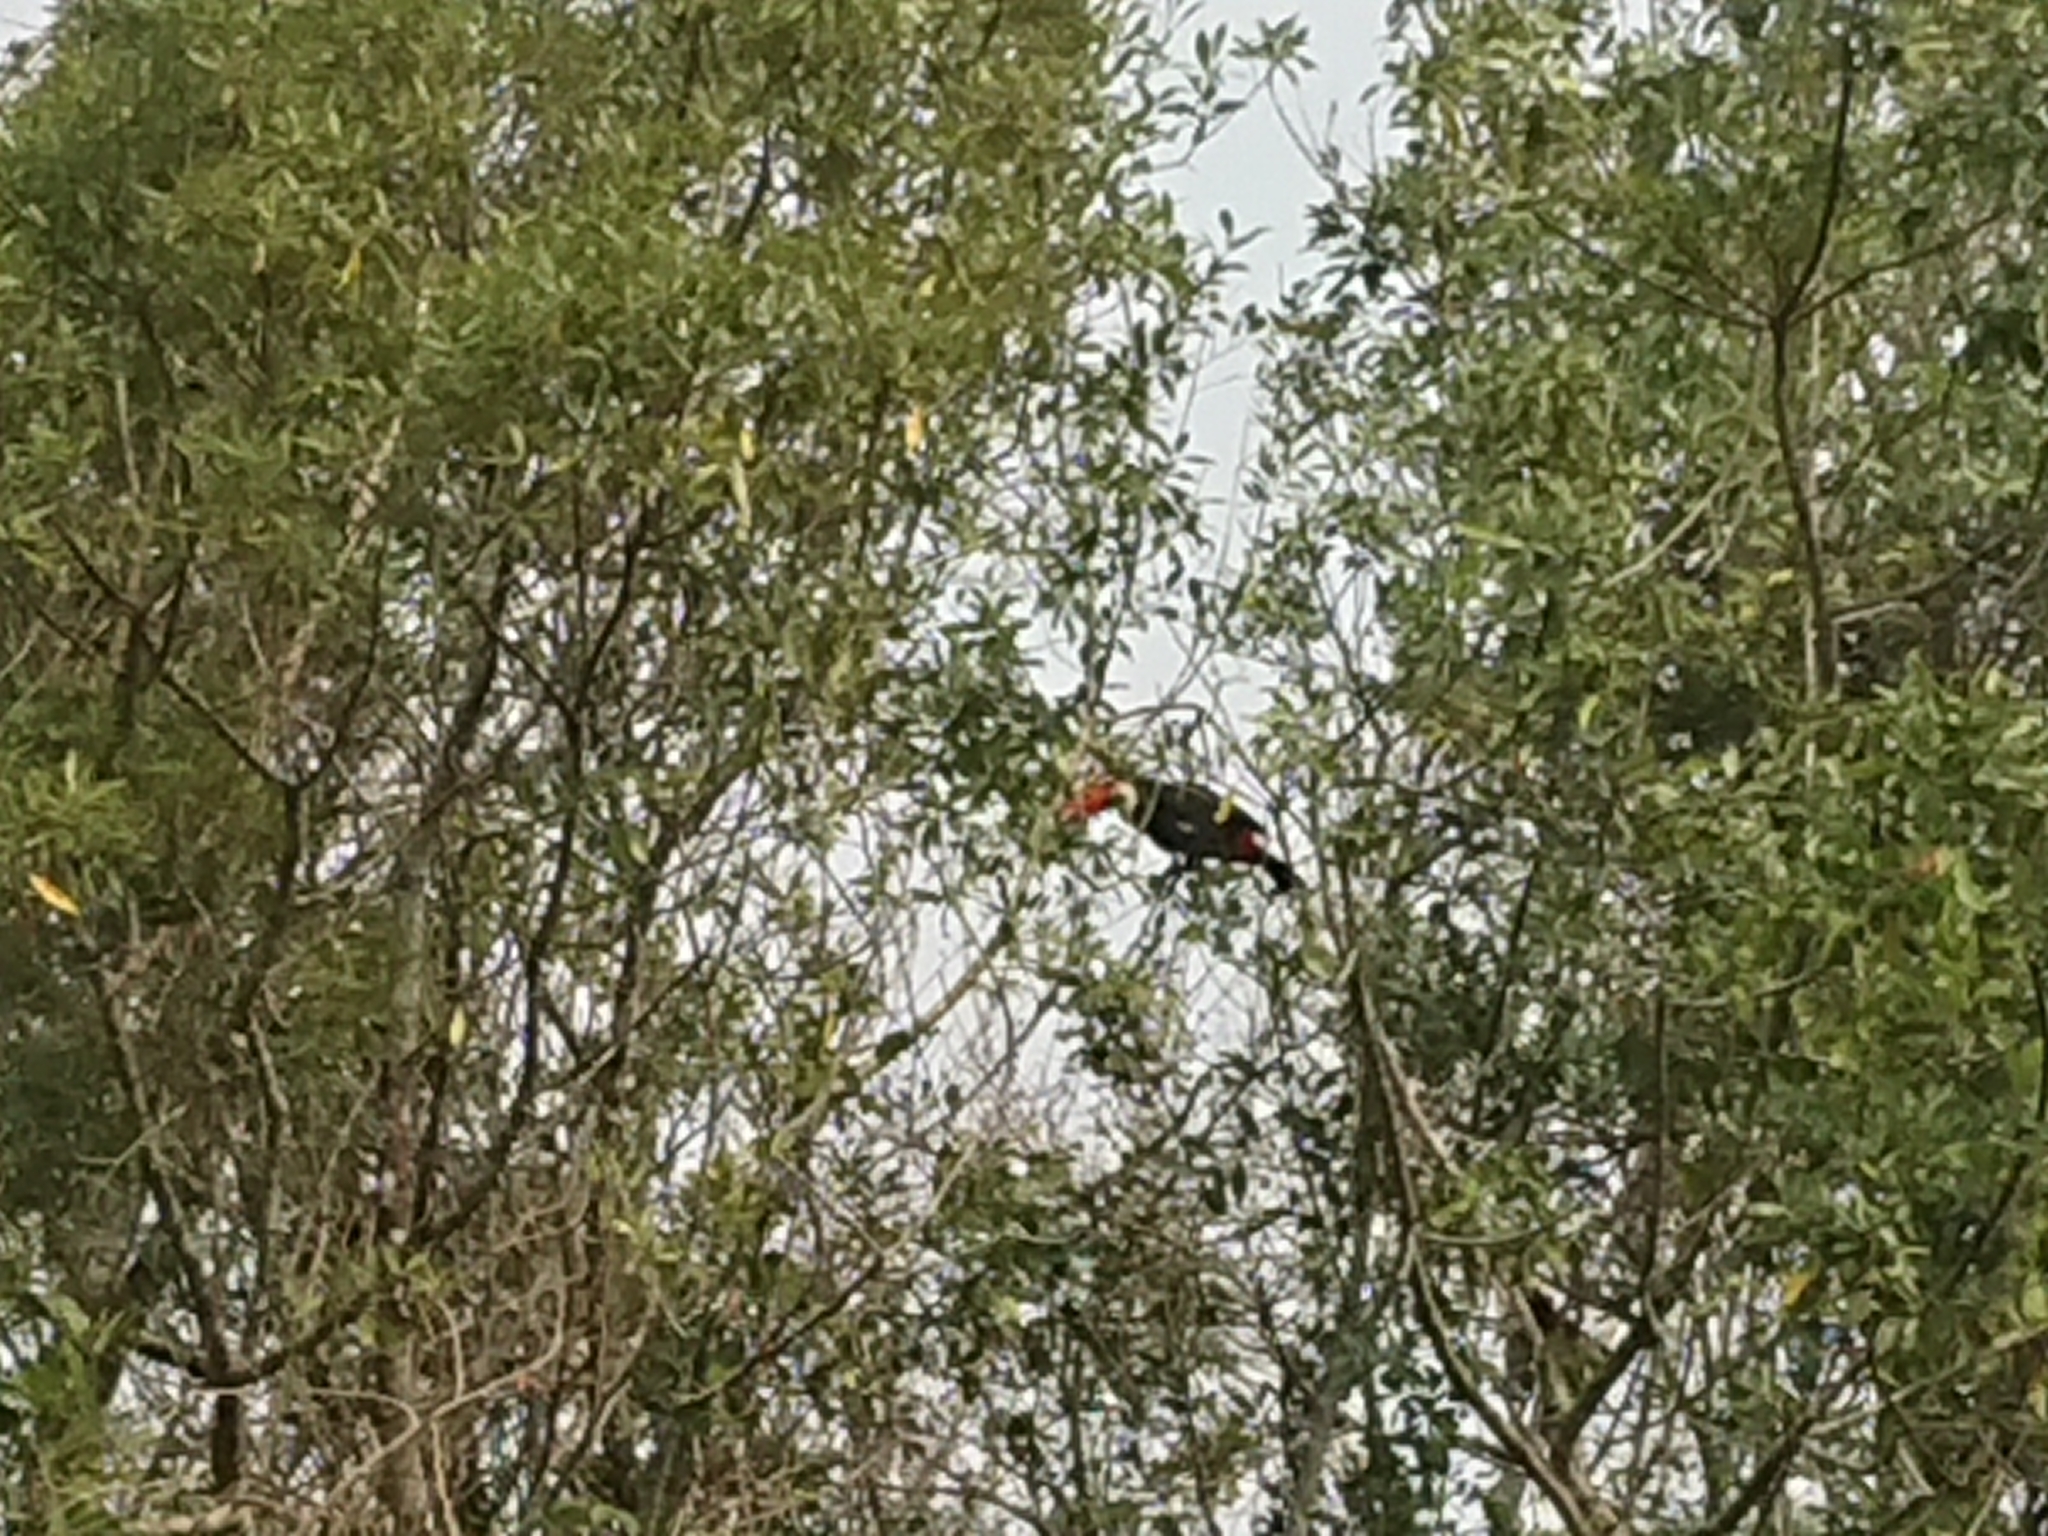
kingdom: Animalia
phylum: Chordata
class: Aves
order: Piciformes
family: Ramphastidae
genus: Ramphastos
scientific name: Ramphastos toco
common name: Toco toucan
